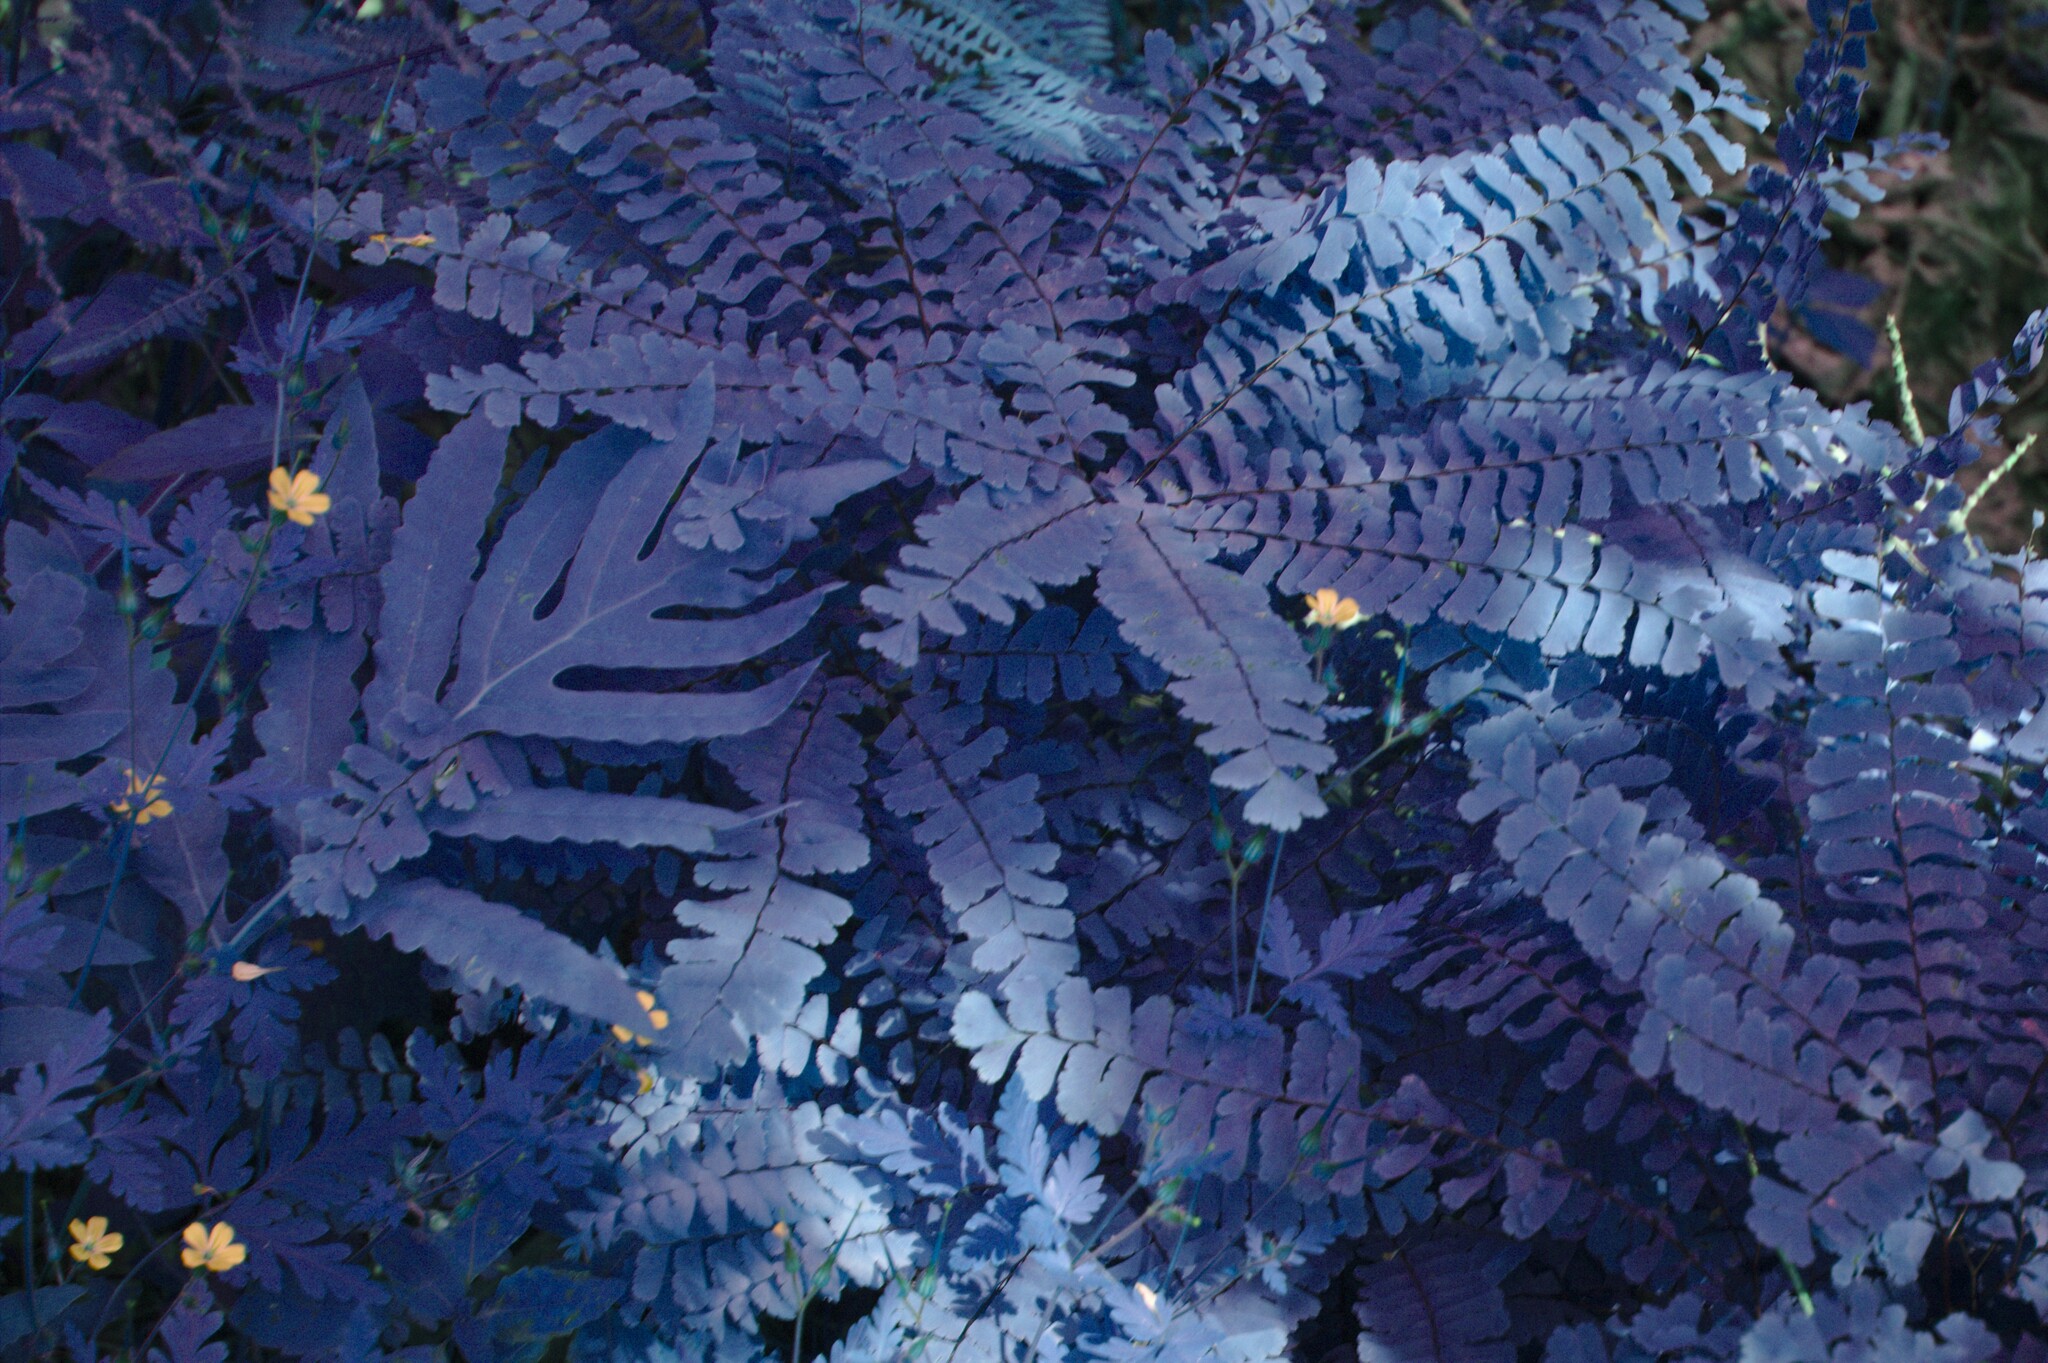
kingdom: Plantae
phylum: Tracheophyta
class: Polypodiopsida
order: Polypodiales
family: Onocleaceae
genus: Onoclea
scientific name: Onoclea sensibilis
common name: Sensitive fern
